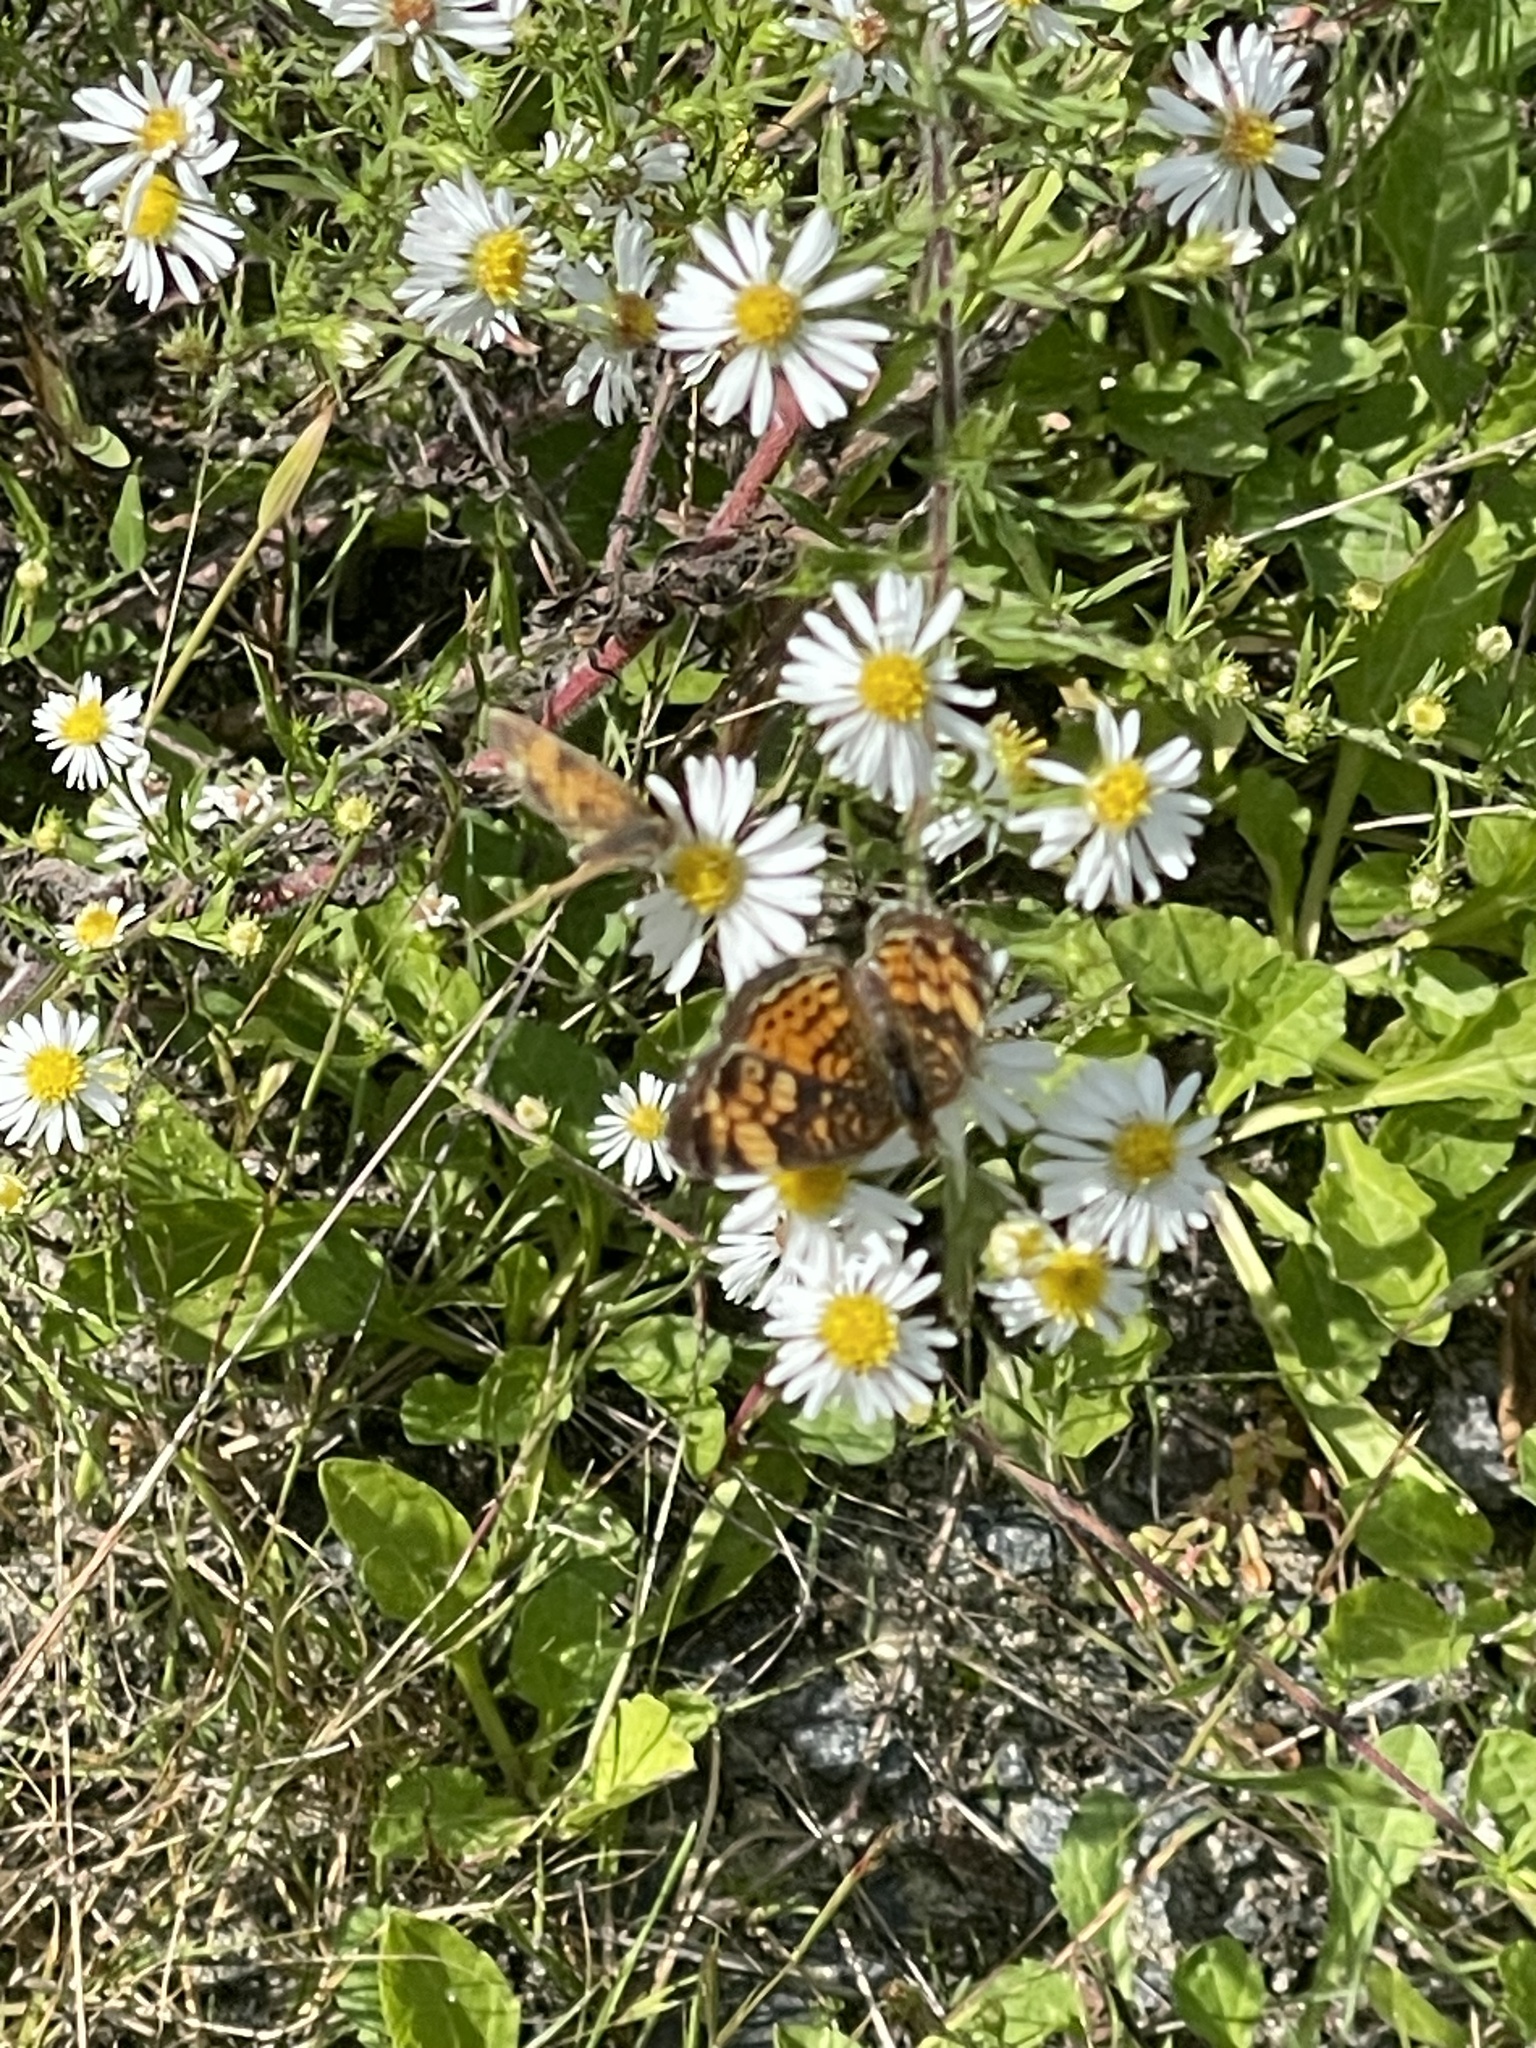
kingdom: Animalia
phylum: Arthropoda
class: Insecta
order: Lepidoptera
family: Nymphalidae
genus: Phyciodes
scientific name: Phyciodes tharos
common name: Pearl crescent
